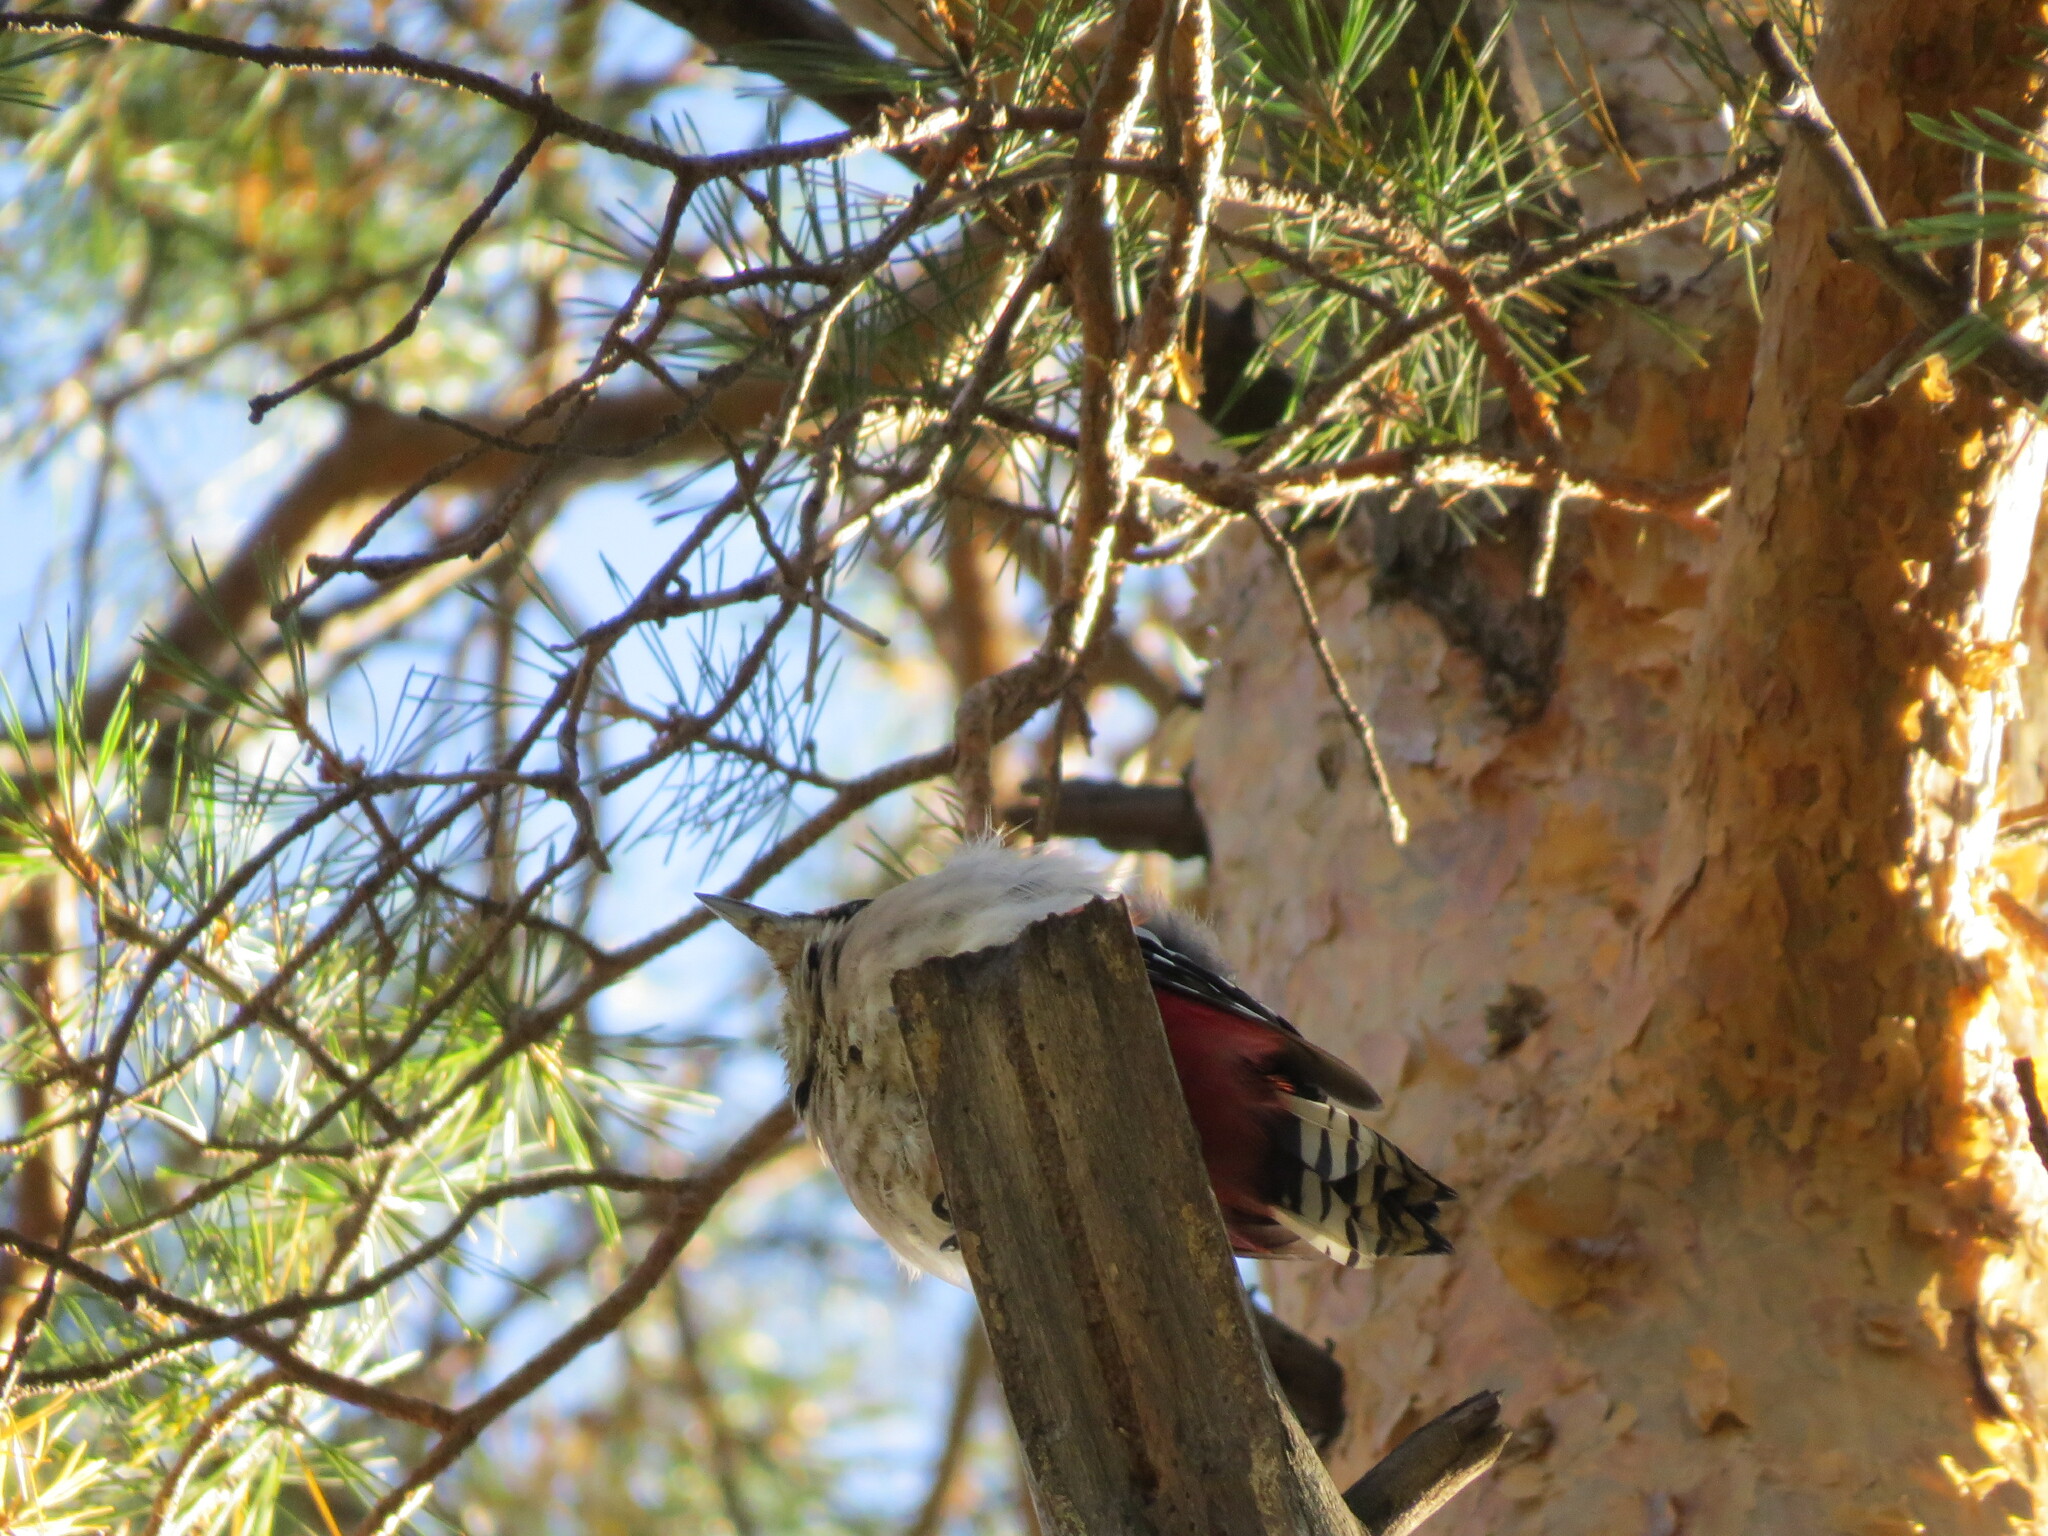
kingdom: Animalia
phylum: Chordata
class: Aves
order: Piciformes
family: Picidae
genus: Dendrocopos
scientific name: Dendrocopos major
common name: Great spotted woodpecker
